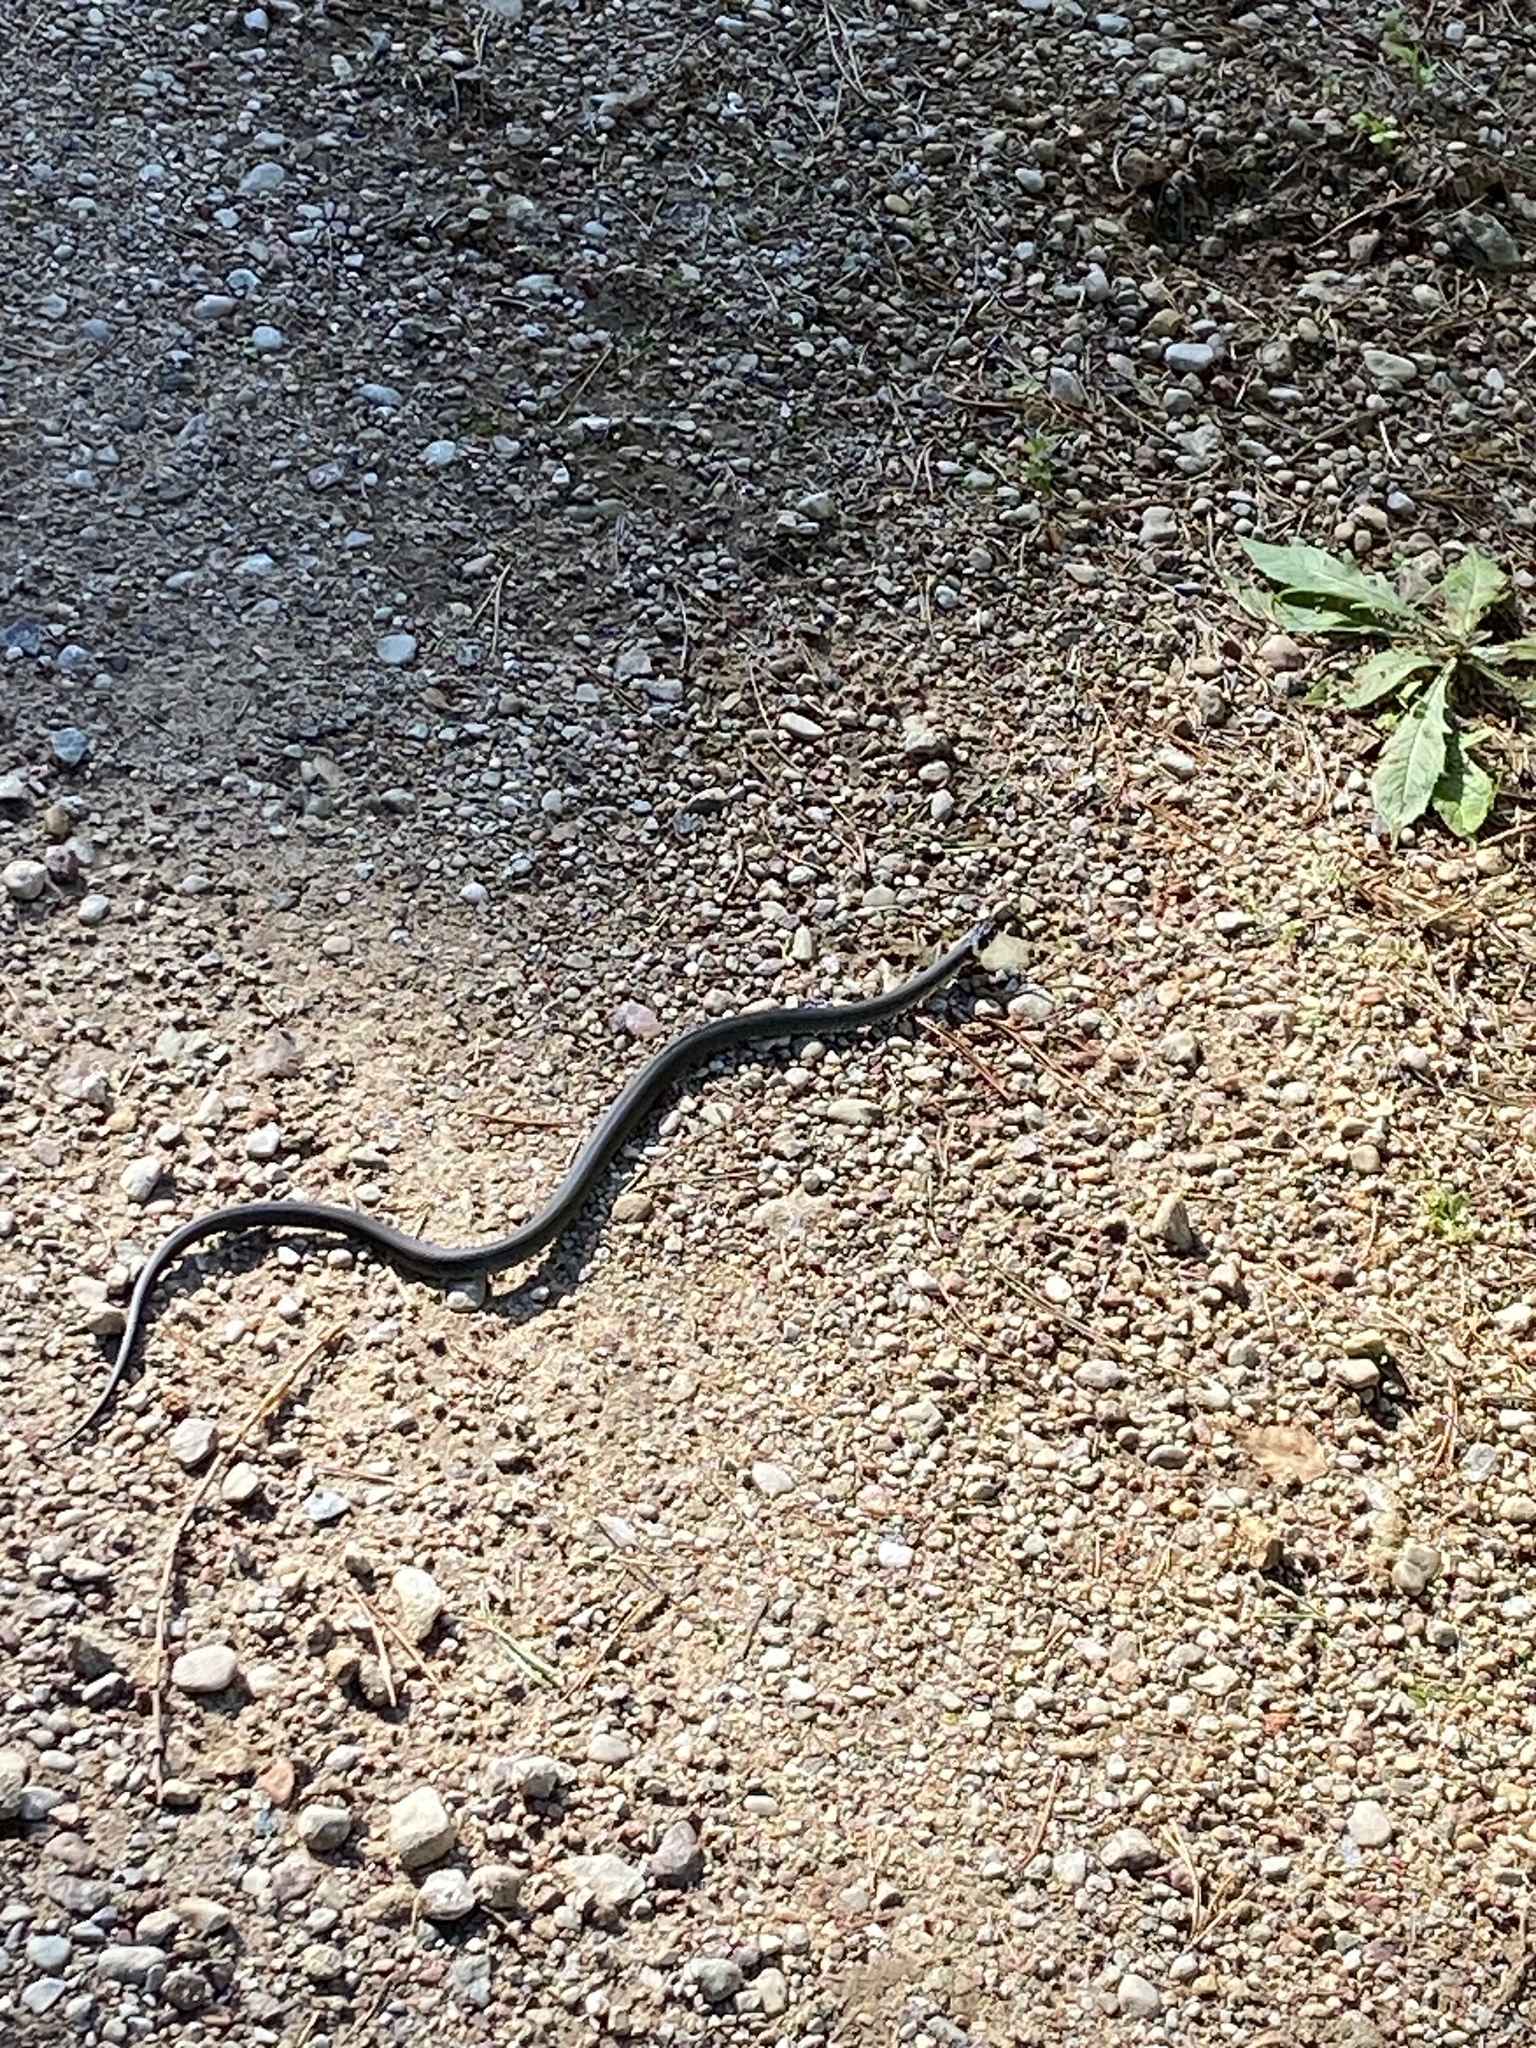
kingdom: Animalia
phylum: Chordata
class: Squamata
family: Colubridae
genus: Natrix
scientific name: Natrix natrix
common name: Grass snake
